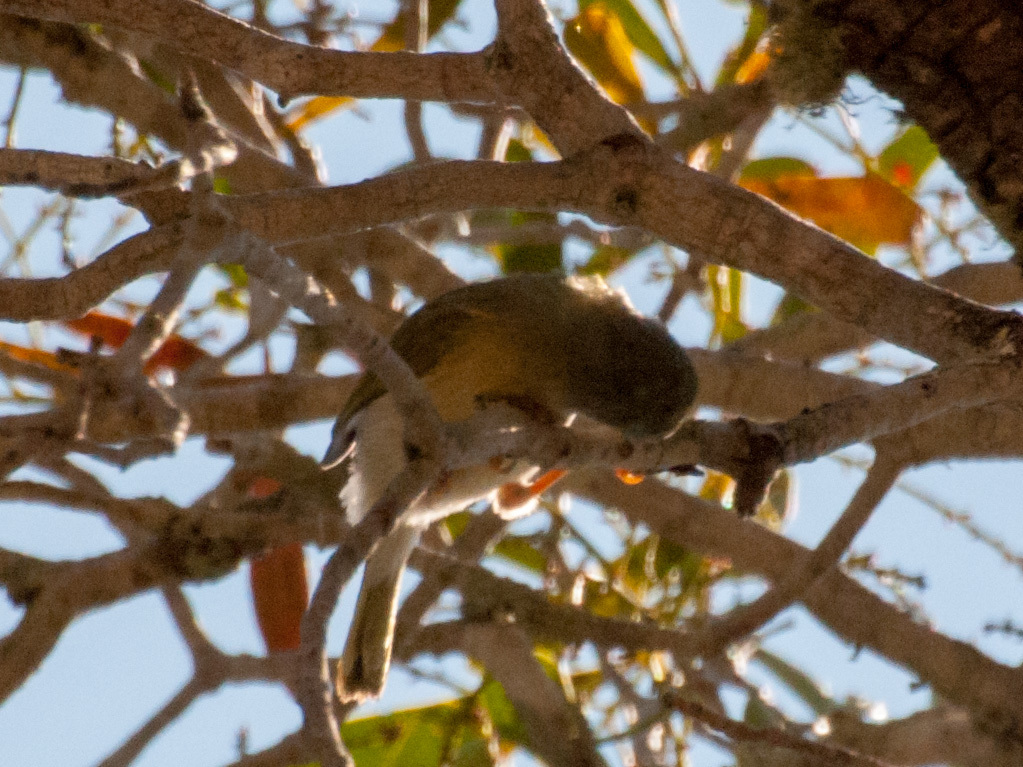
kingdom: Animalia
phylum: Chordata
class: Aves
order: Passeriformes
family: Cisticolidae
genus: Neomixis
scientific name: Neomixis tenella
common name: Common jery
